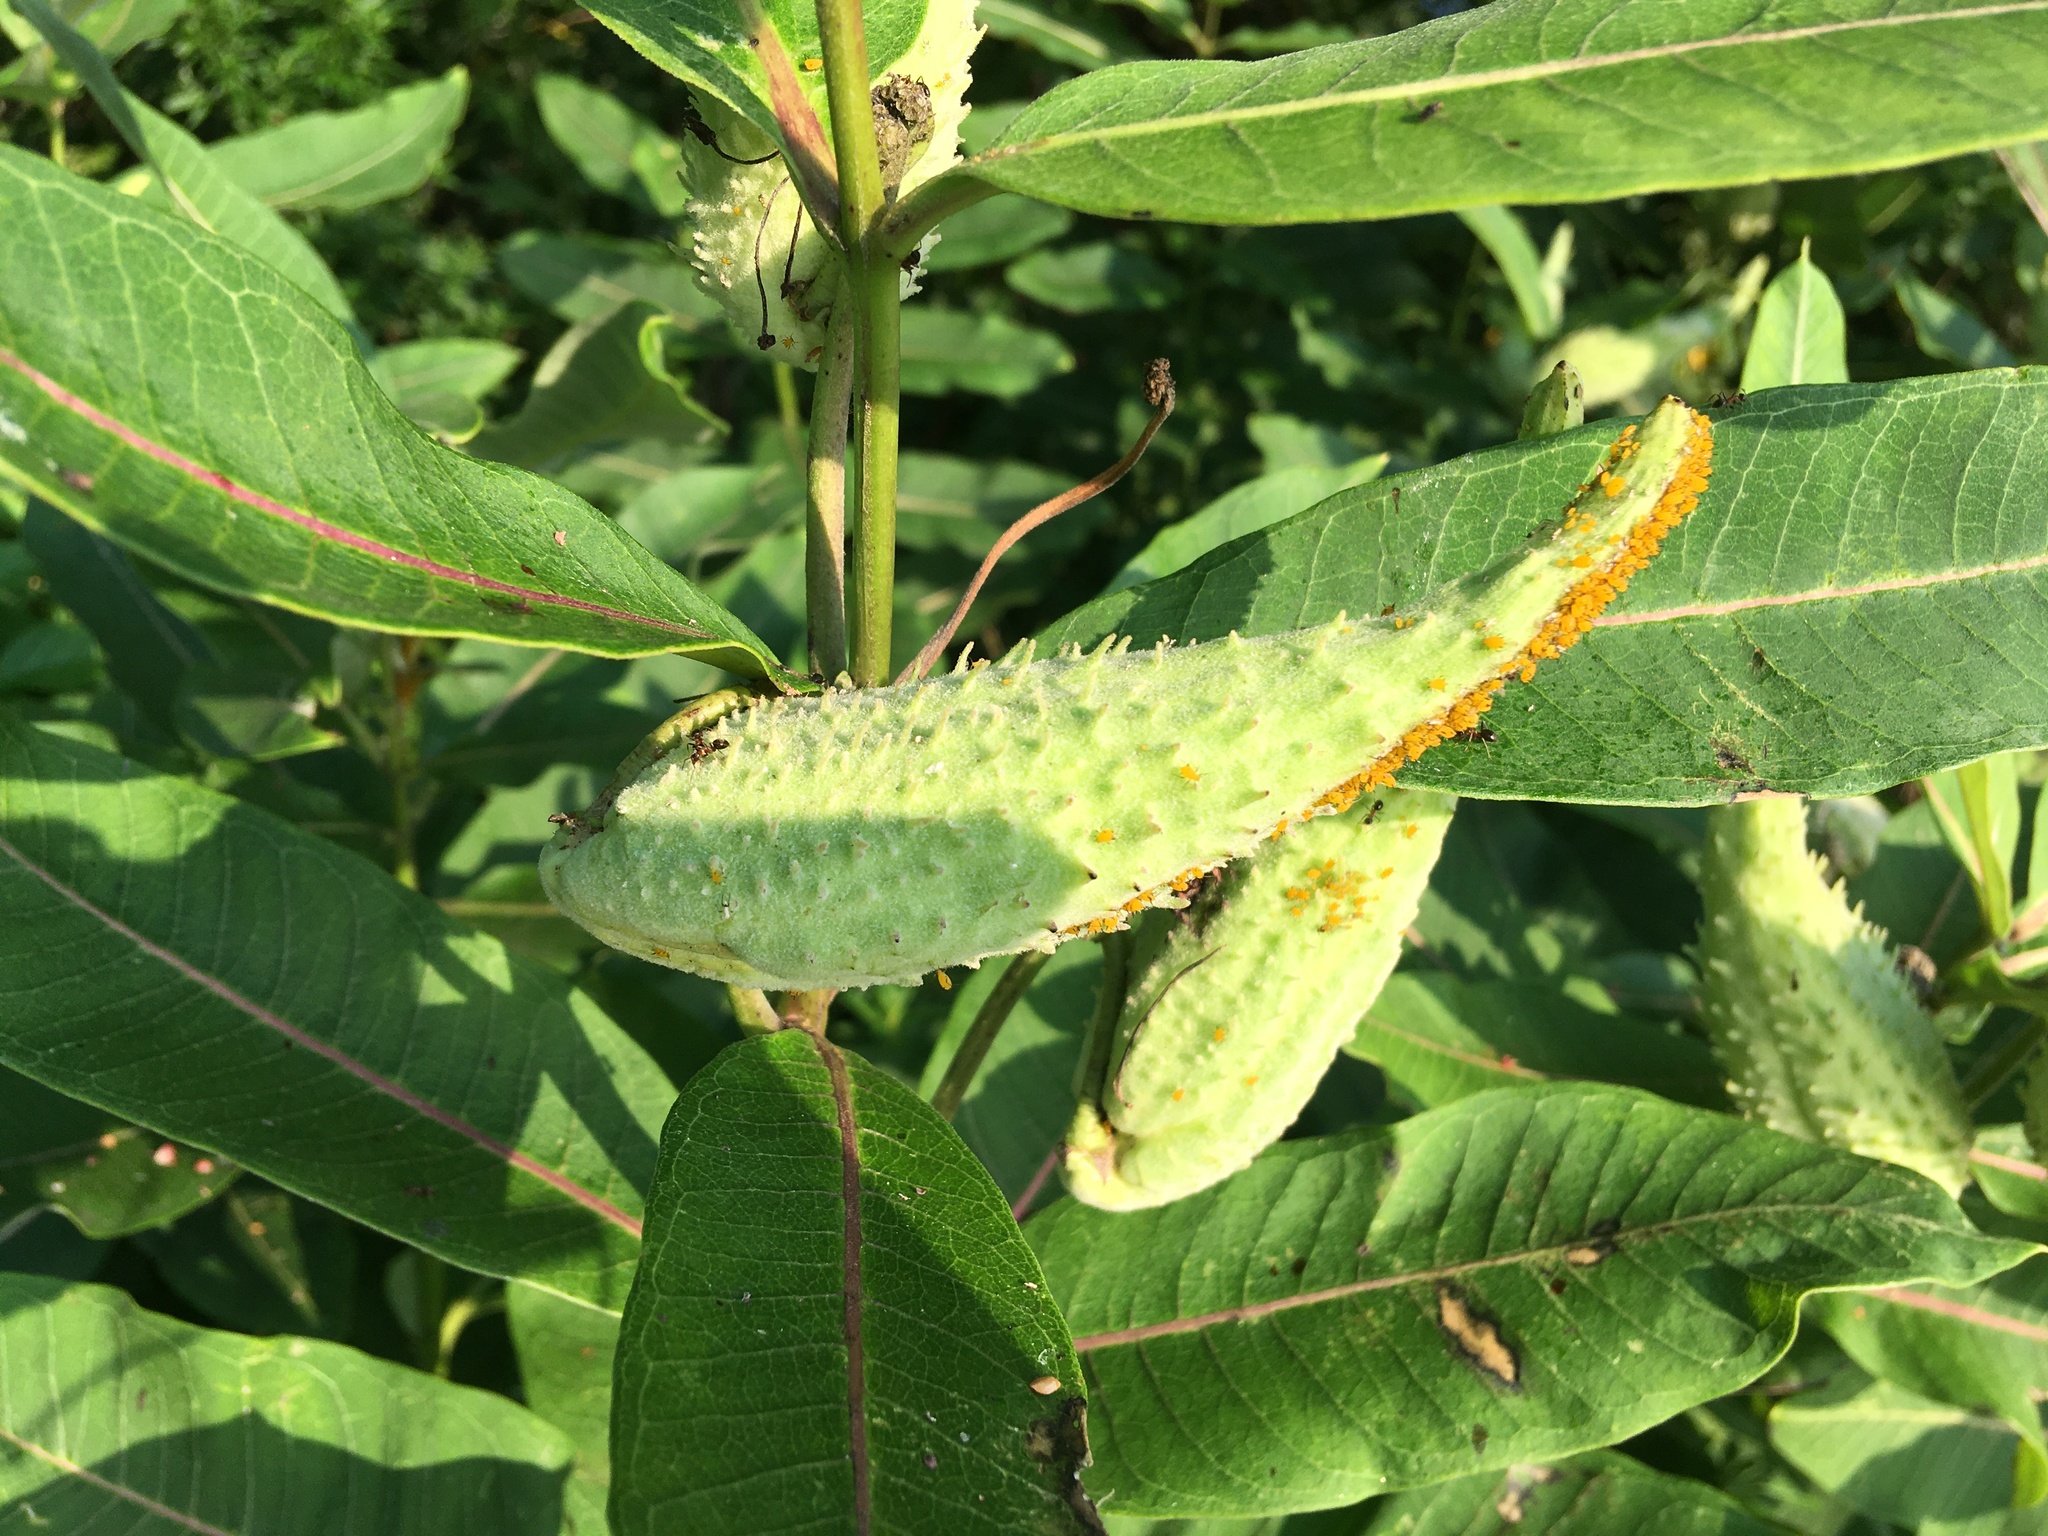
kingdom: Plantae
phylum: Tracheophyta
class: Magnoliopsida
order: Gentianales
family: Apocynaceae
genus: Asclepias
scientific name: Asclepias syriaca
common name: Common milkweed
